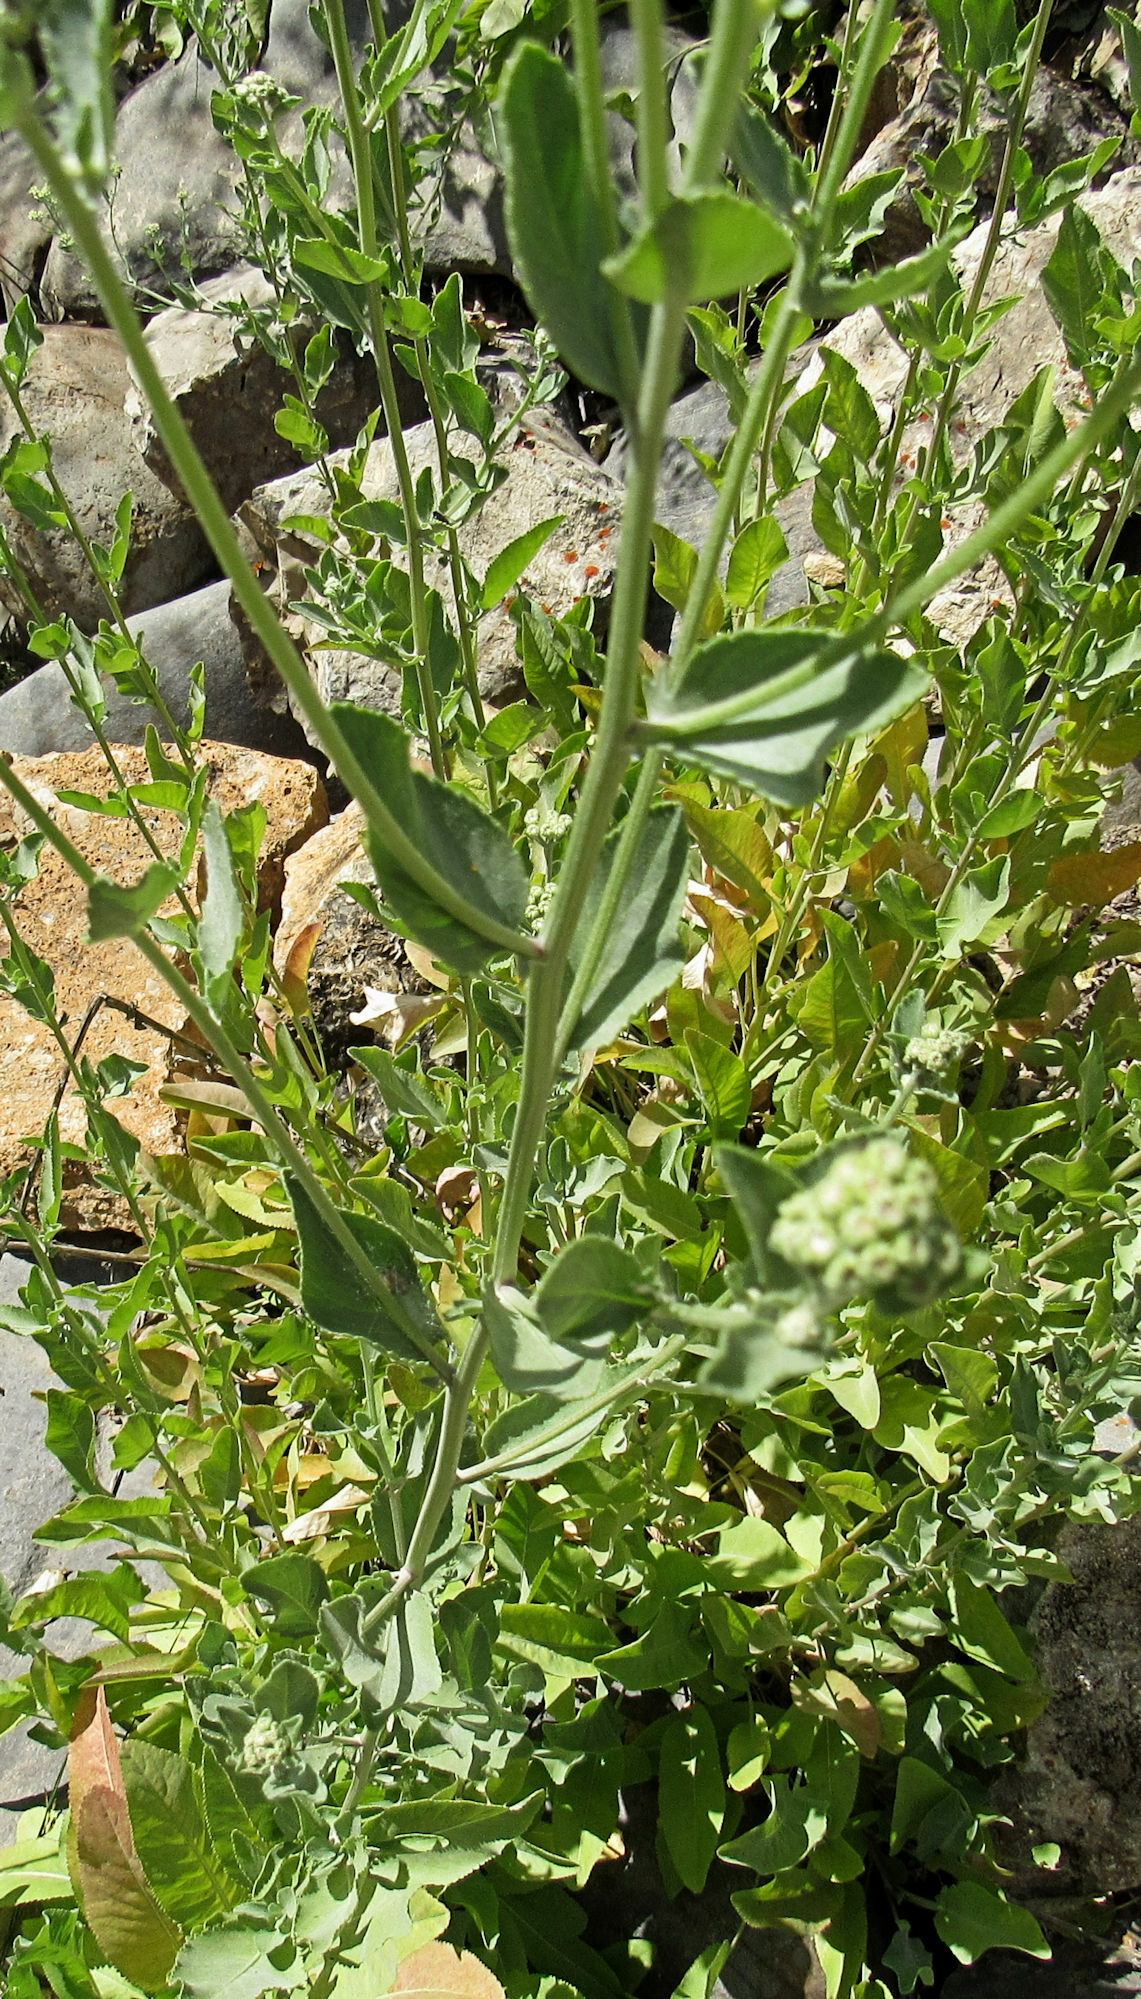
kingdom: Plantae
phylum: Tracheophyta
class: Magnoliopsida
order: Asterales
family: Asteraceae
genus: Tanacetum
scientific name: Tanacetum balsamita
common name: Costmary
